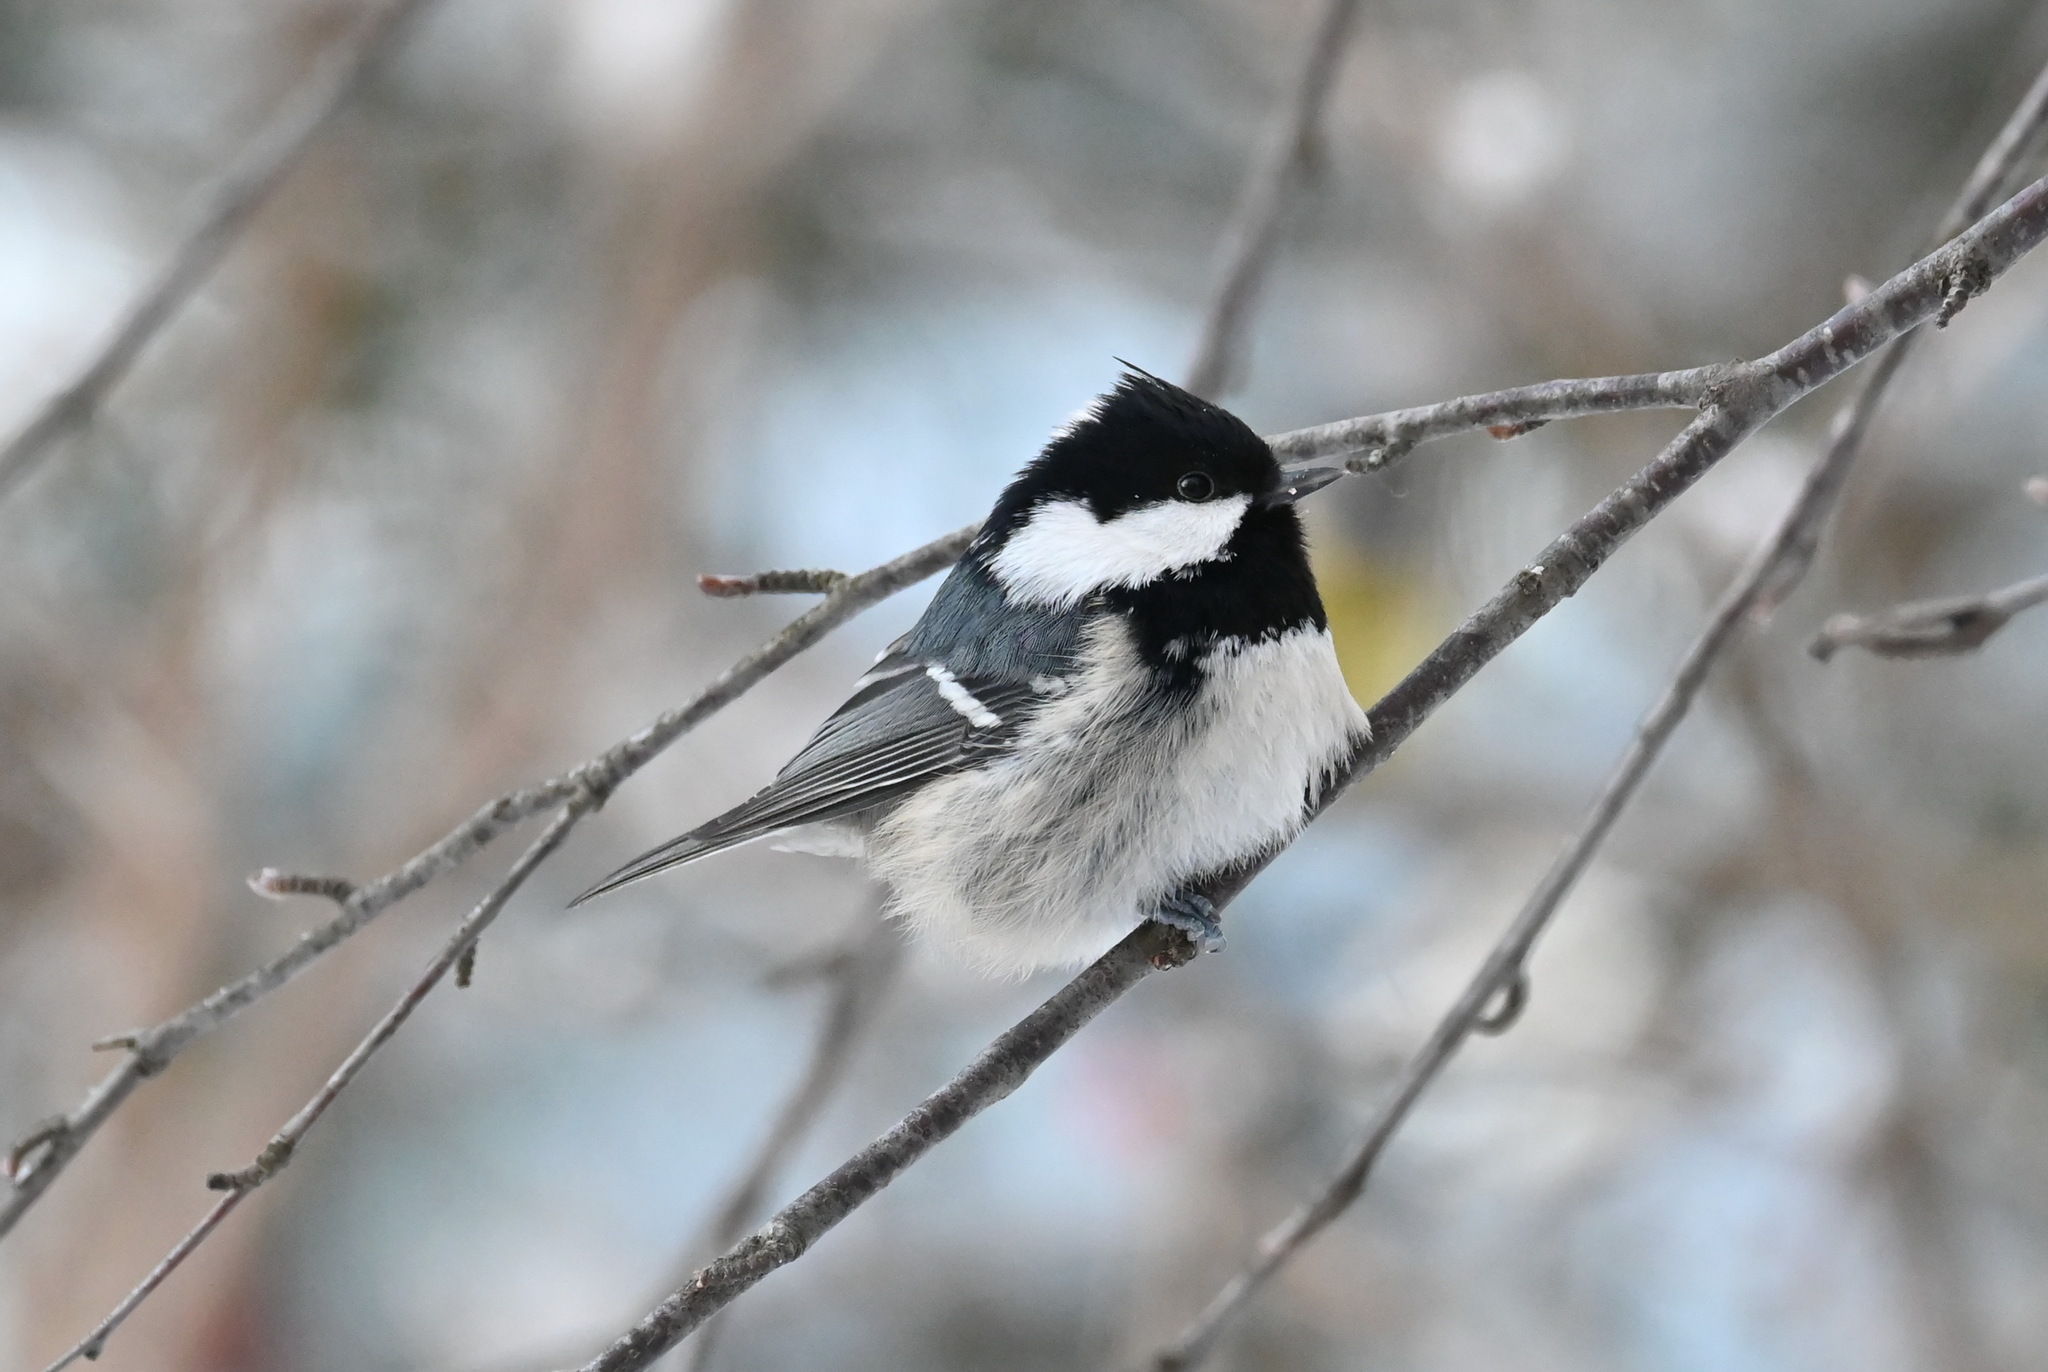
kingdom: Animalia
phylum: Chordata
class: Aves
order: Passeriformes
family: Paridae
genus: Periparus
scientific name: Periparus ater
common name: Coal tit
